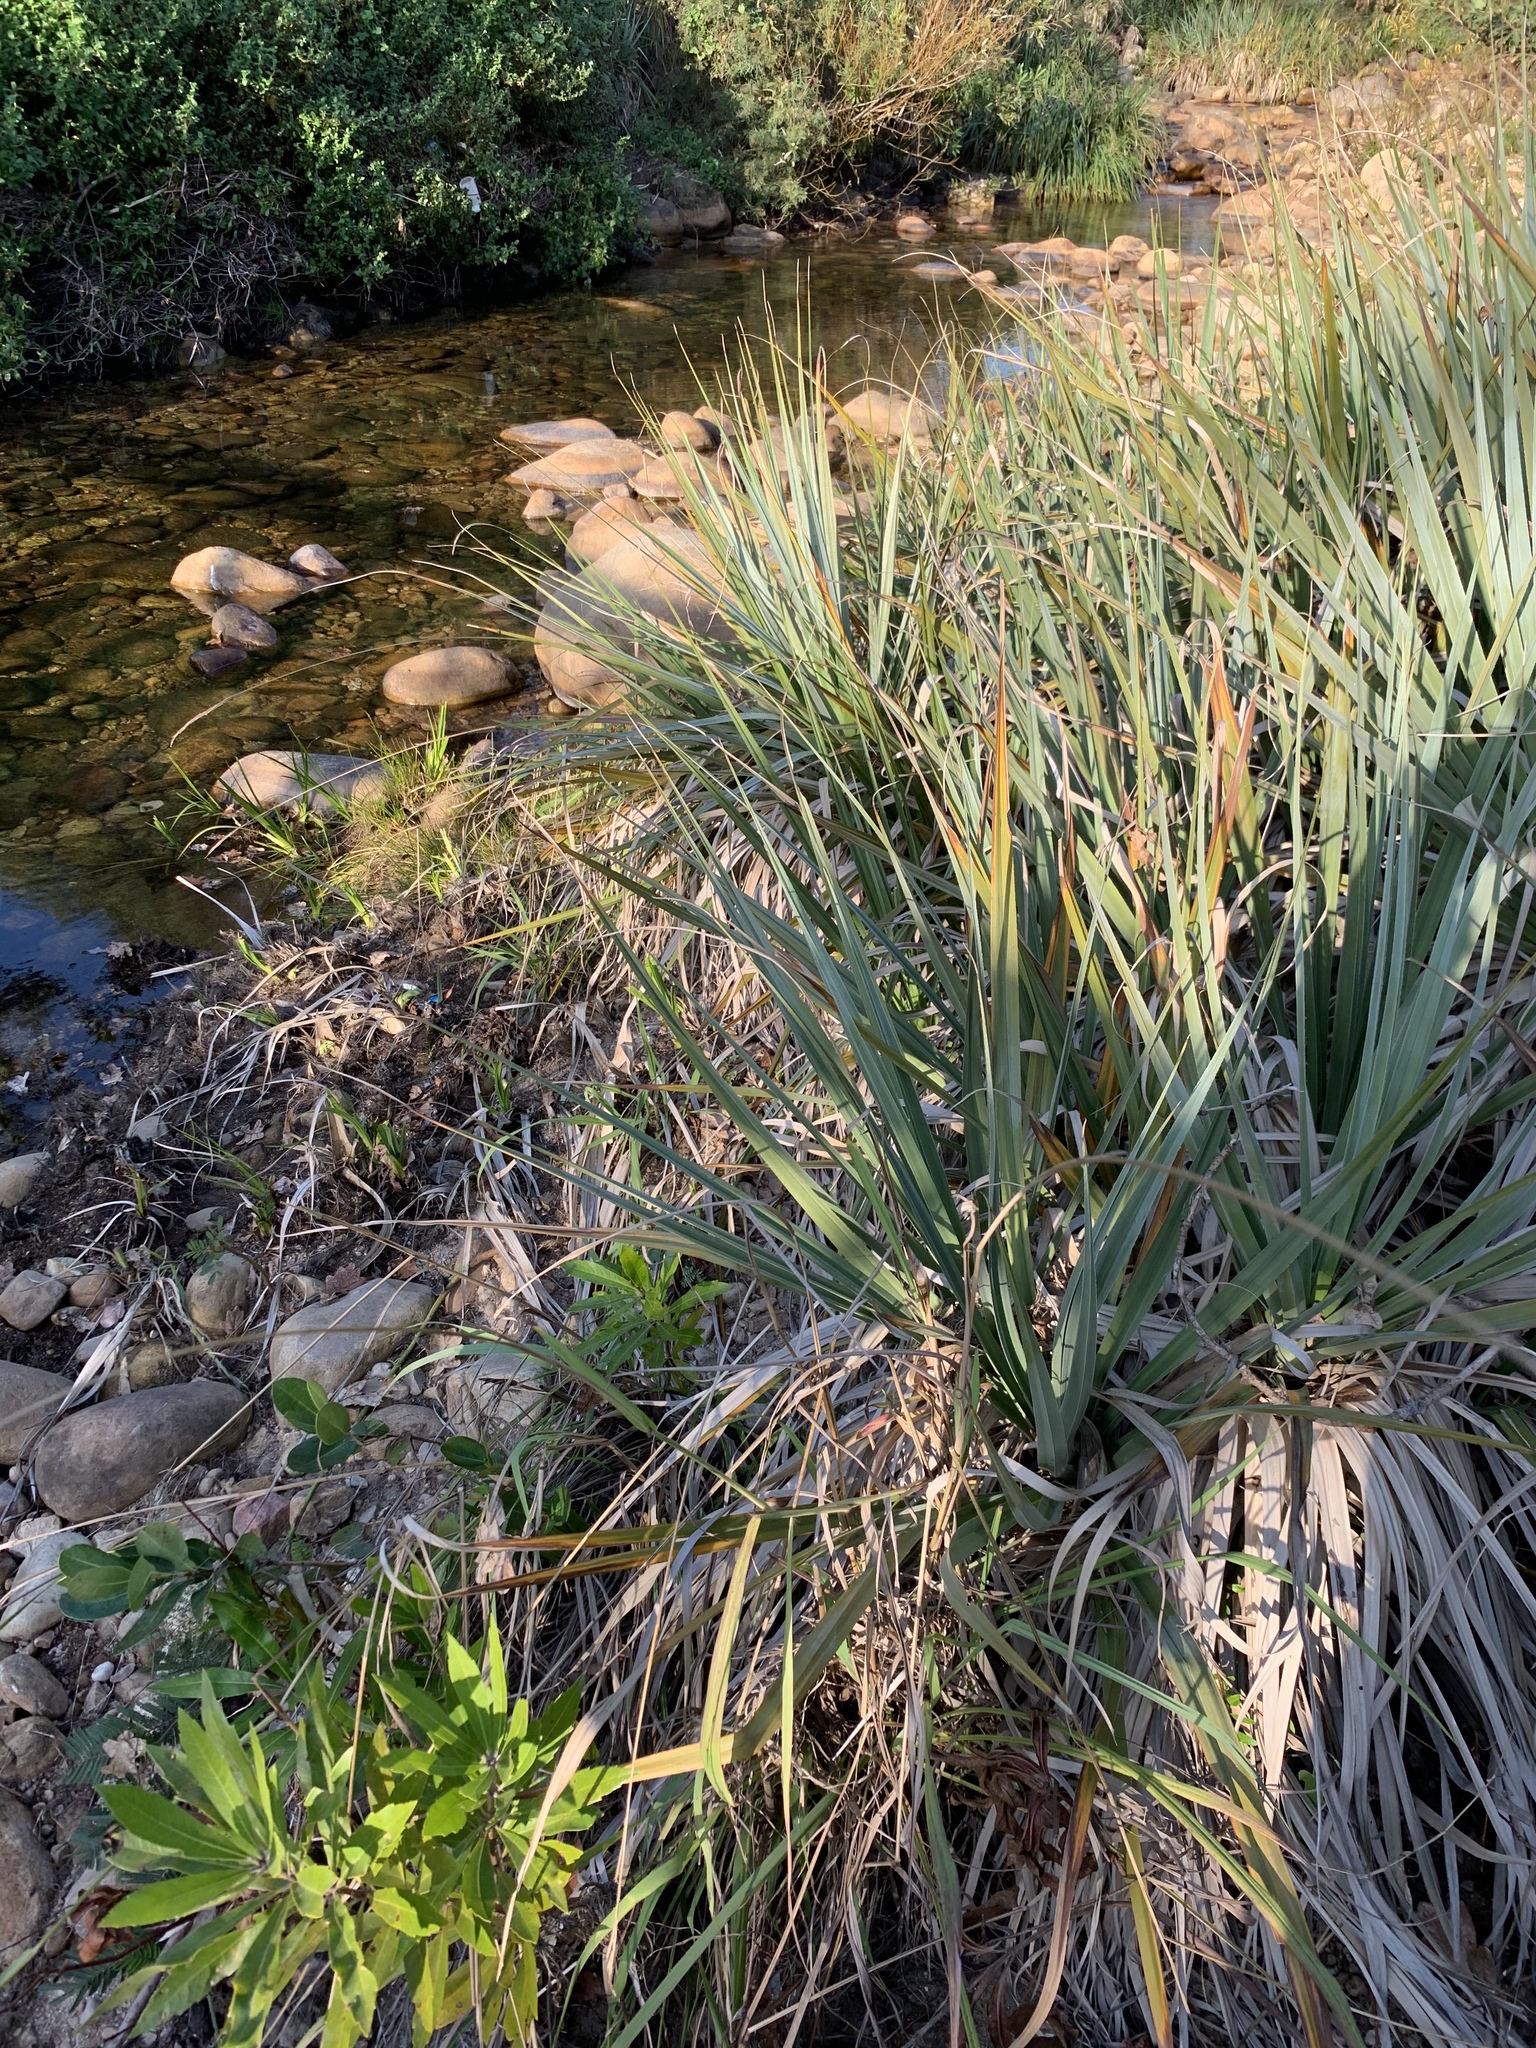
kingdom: Plantae
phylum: Tracheophyta
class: Liliopsida
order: Poales
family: Thurniaceae
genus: Prionium
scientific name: Prionium serratum
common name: Palmiet
